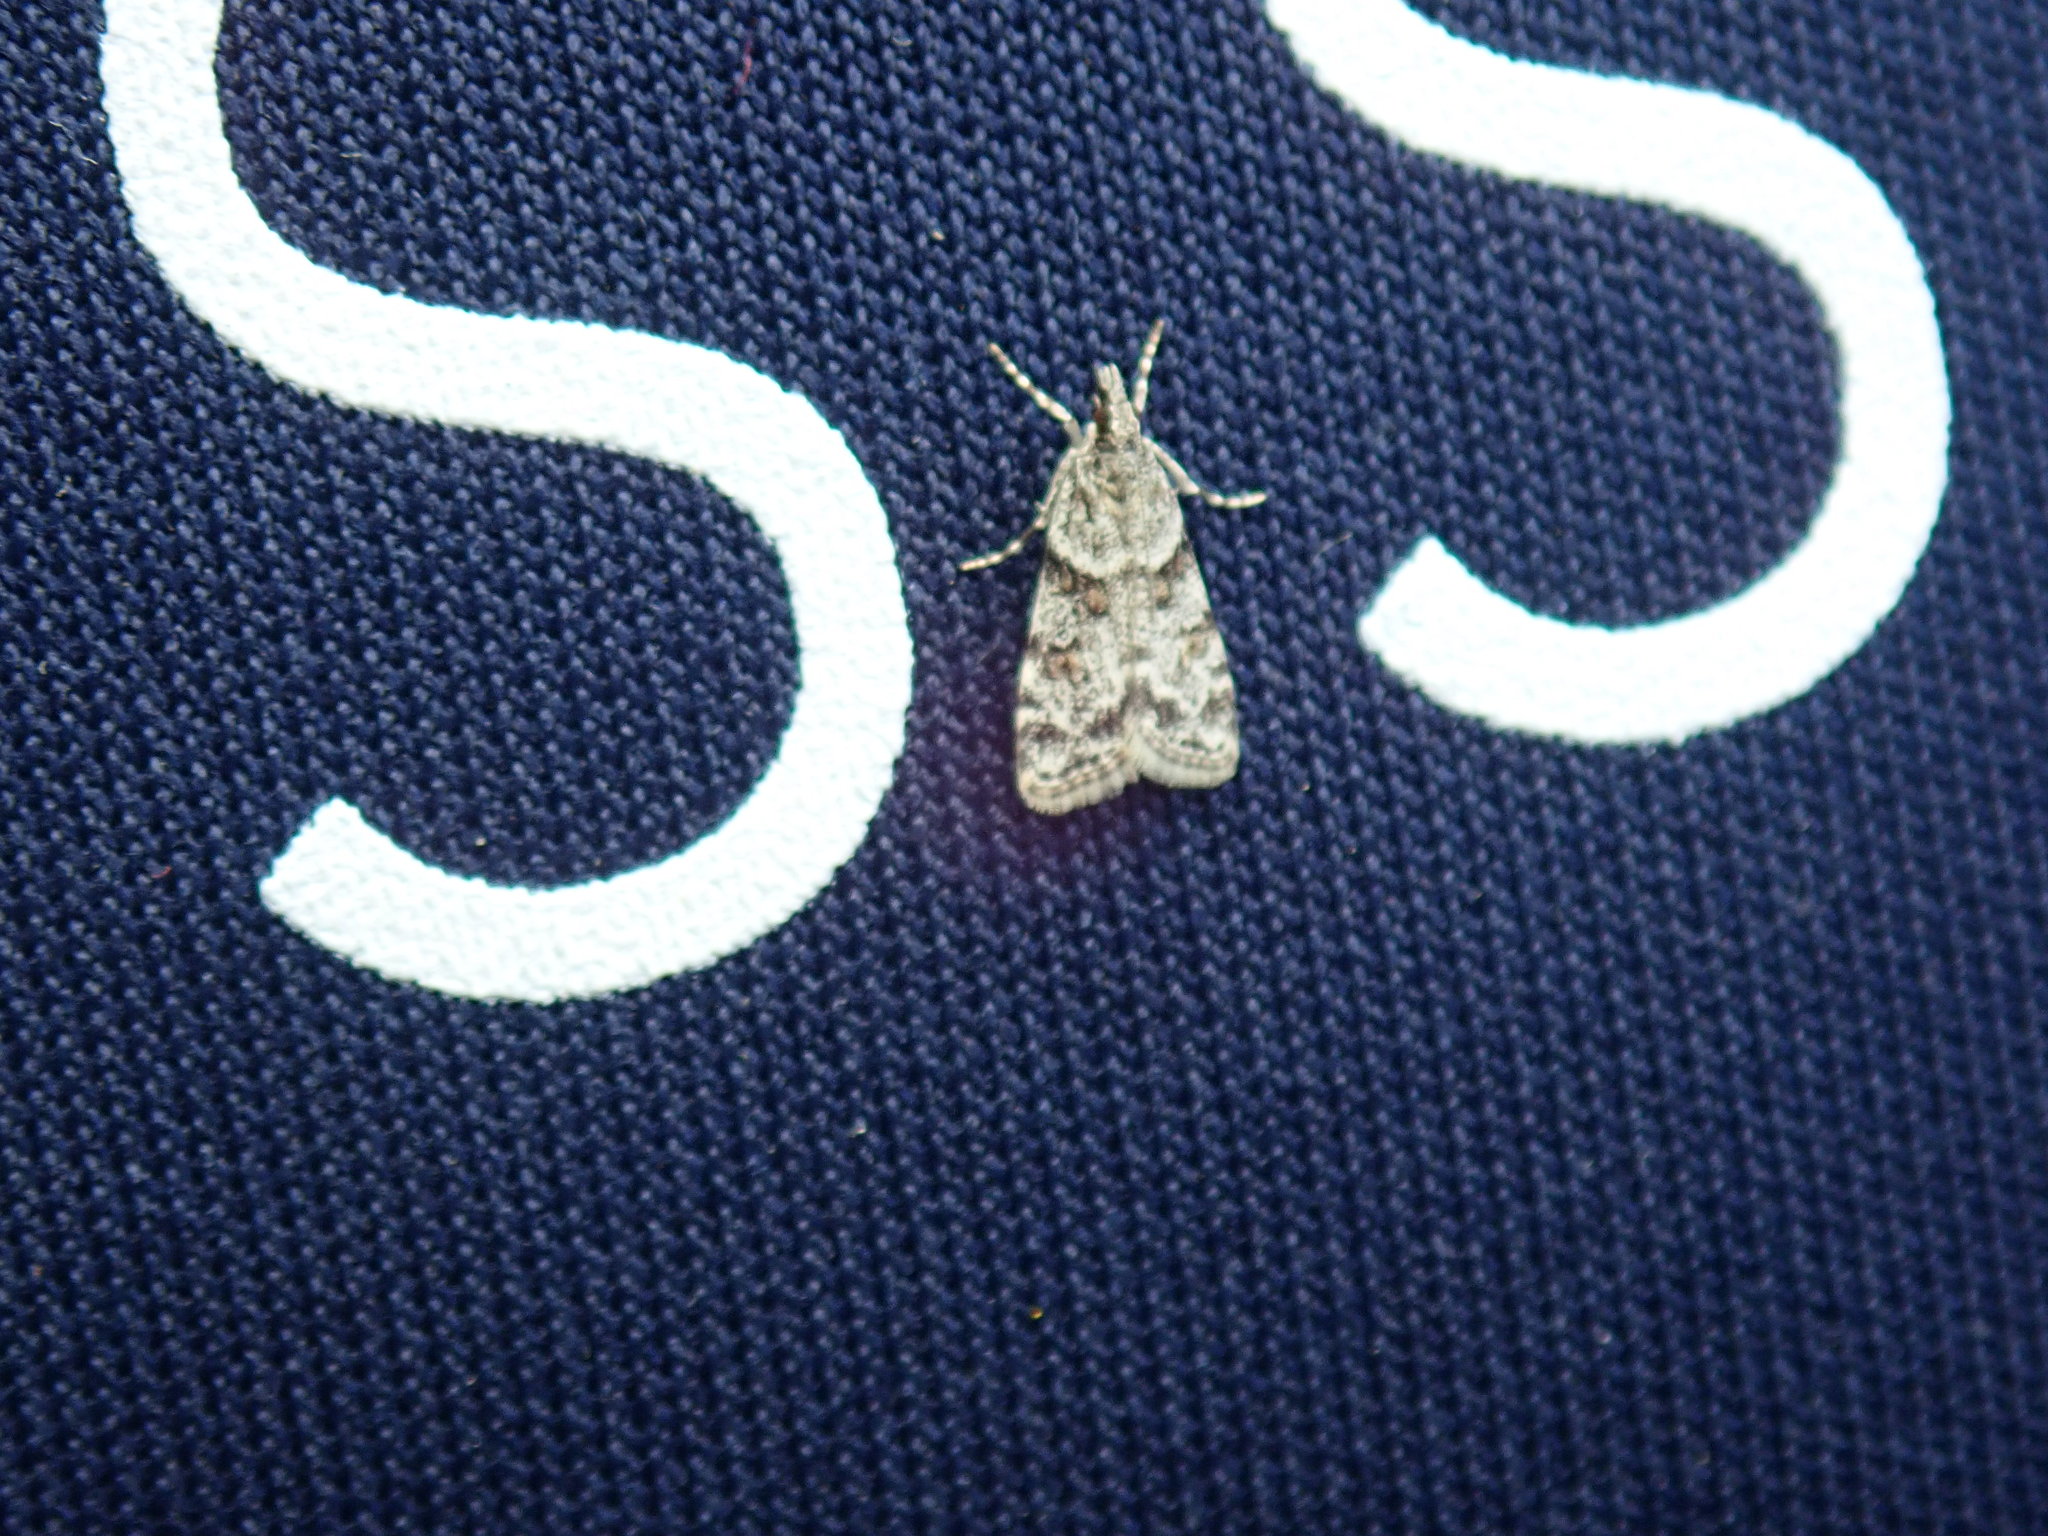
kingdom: Animalia
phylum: Arthropoda
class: Insecta
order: Lepidoptera
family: Crambidae
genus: Scoparia
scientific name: Scoparia biplagialis
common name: Double-striped scoparia moth
